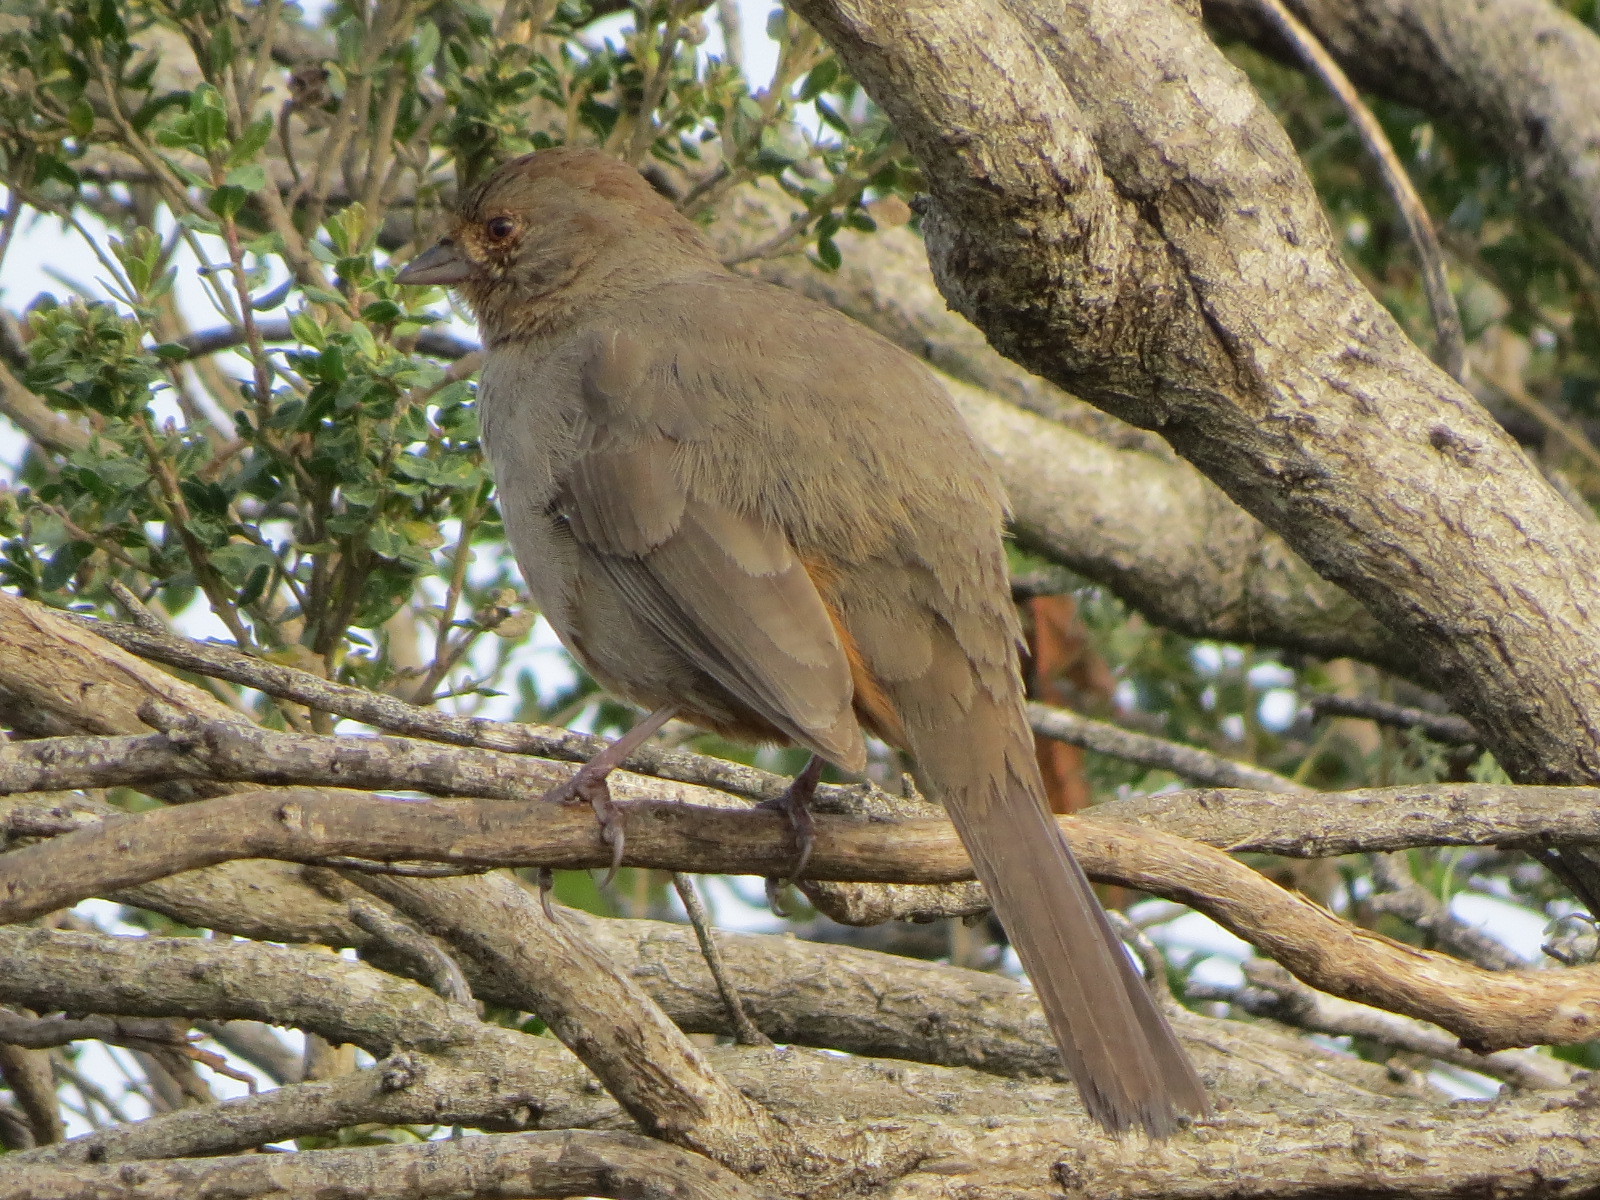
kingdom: Animalia
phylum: Chordata
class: Aves
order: Passeriformes
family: Passerellidae
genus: Melozone
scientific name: Melozone crissalis
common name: California towhee
